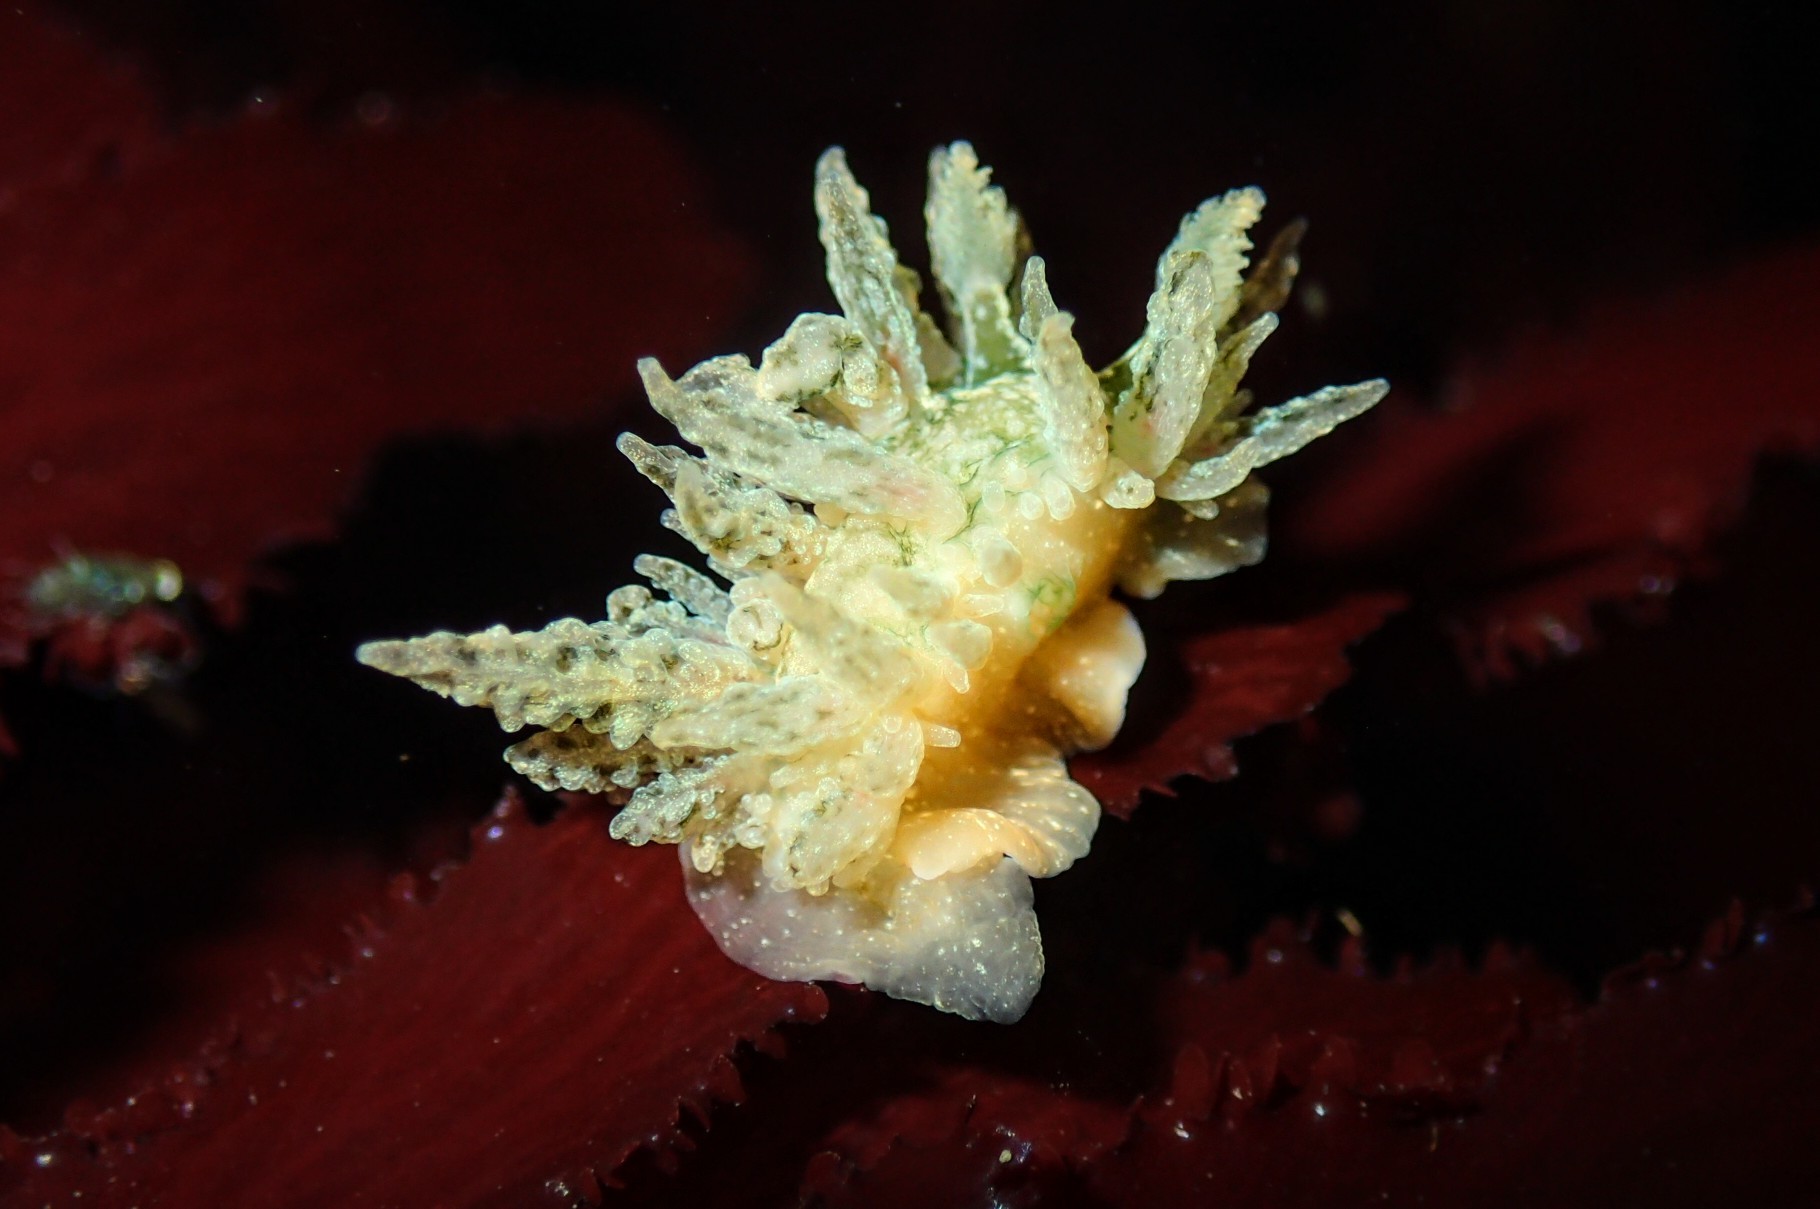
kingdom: Animalia
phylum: Mollusca
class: Gastropoda
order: Nudibranchia
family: Dironidae
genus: Dirona
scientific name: Dirona picta
